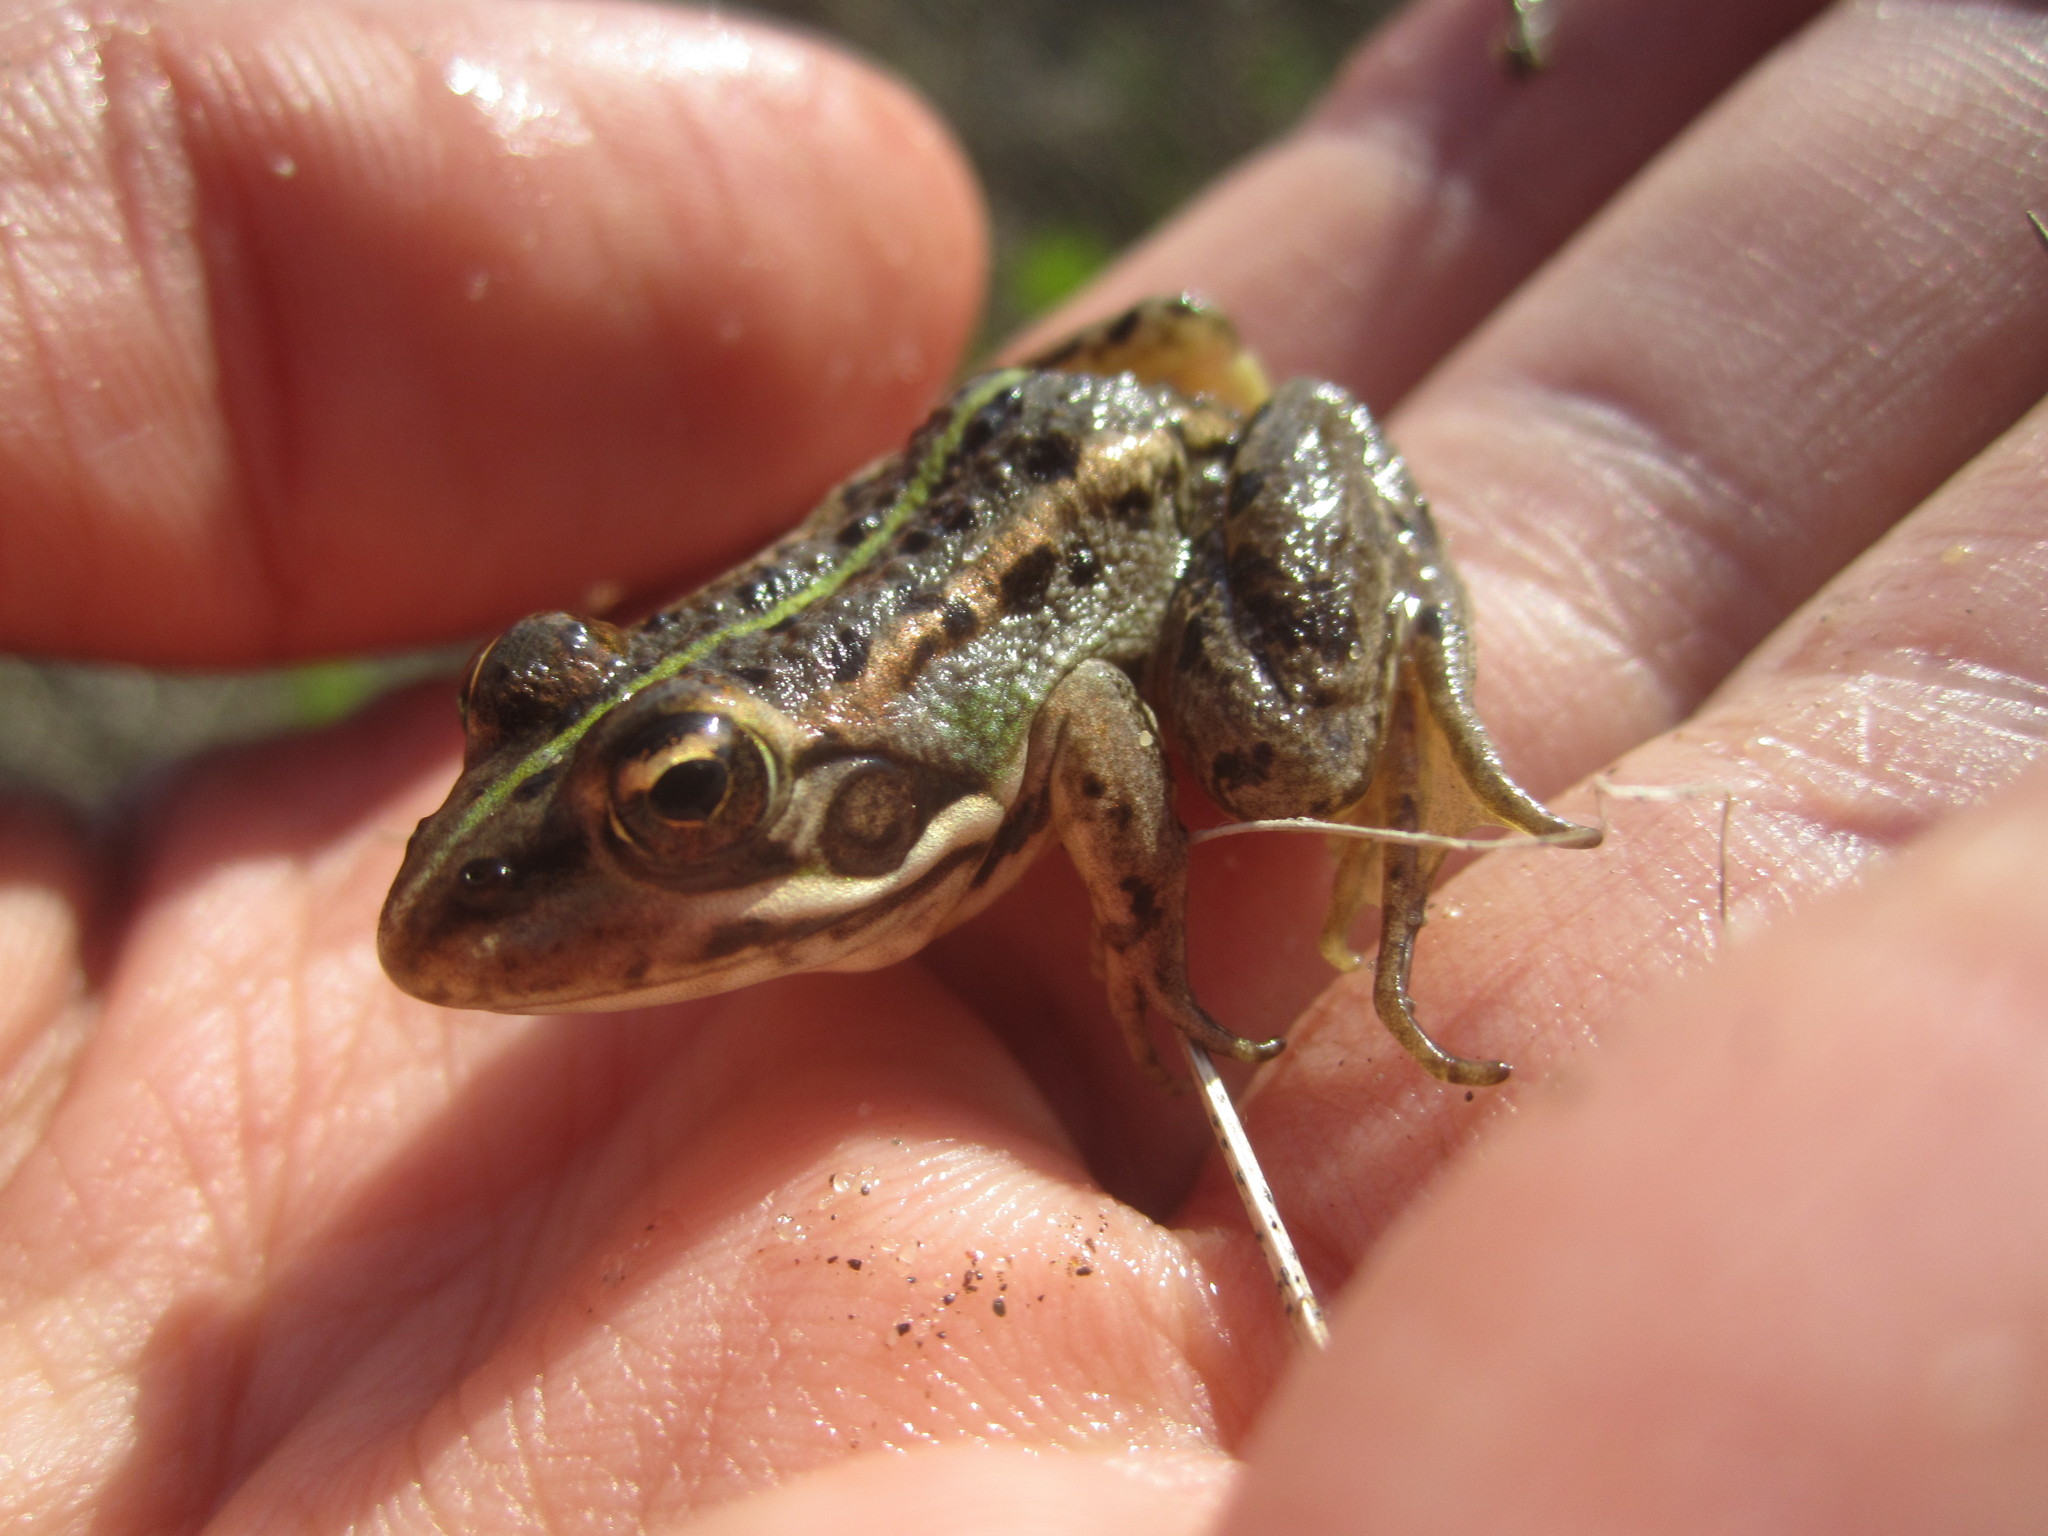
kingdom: Animalia
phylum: Chordata
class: Amphibia
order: Anura
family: Ranidae
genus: Pelophylax
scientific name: Pelophylax perezi
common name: Perez's frog
